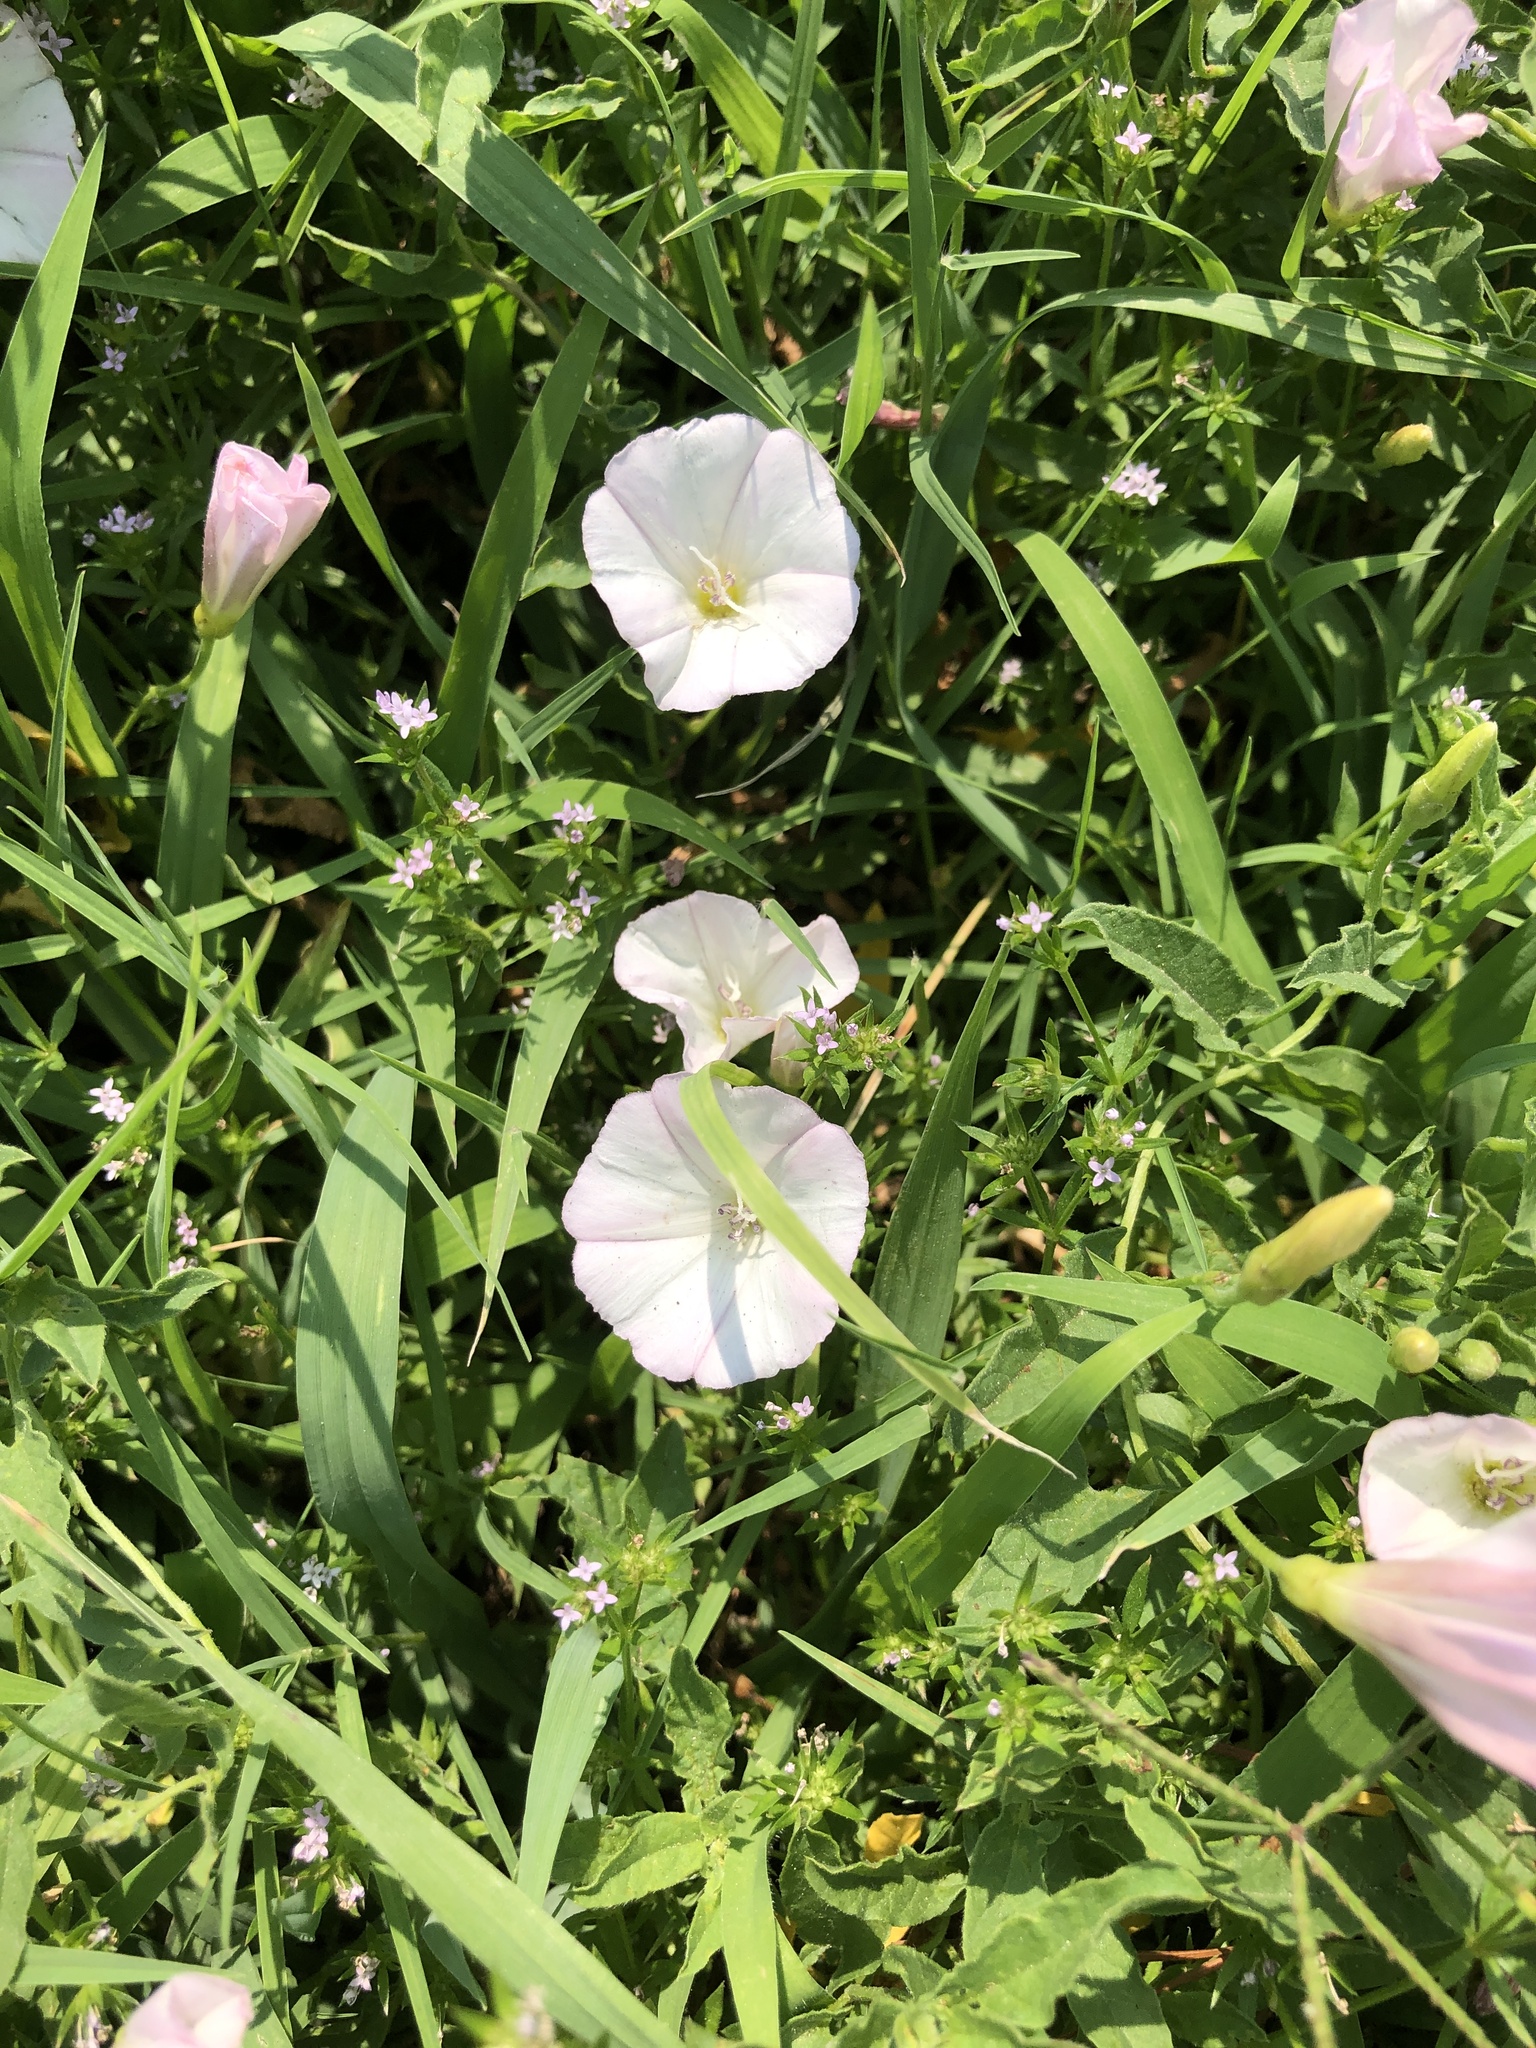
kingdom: Plantae
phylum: Tracheophyta
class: Magnoliopsida
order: Solanales
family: Convolvulaceae
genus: Convolvulus
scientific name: Convolvulus arvensis
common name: Field bindweed
